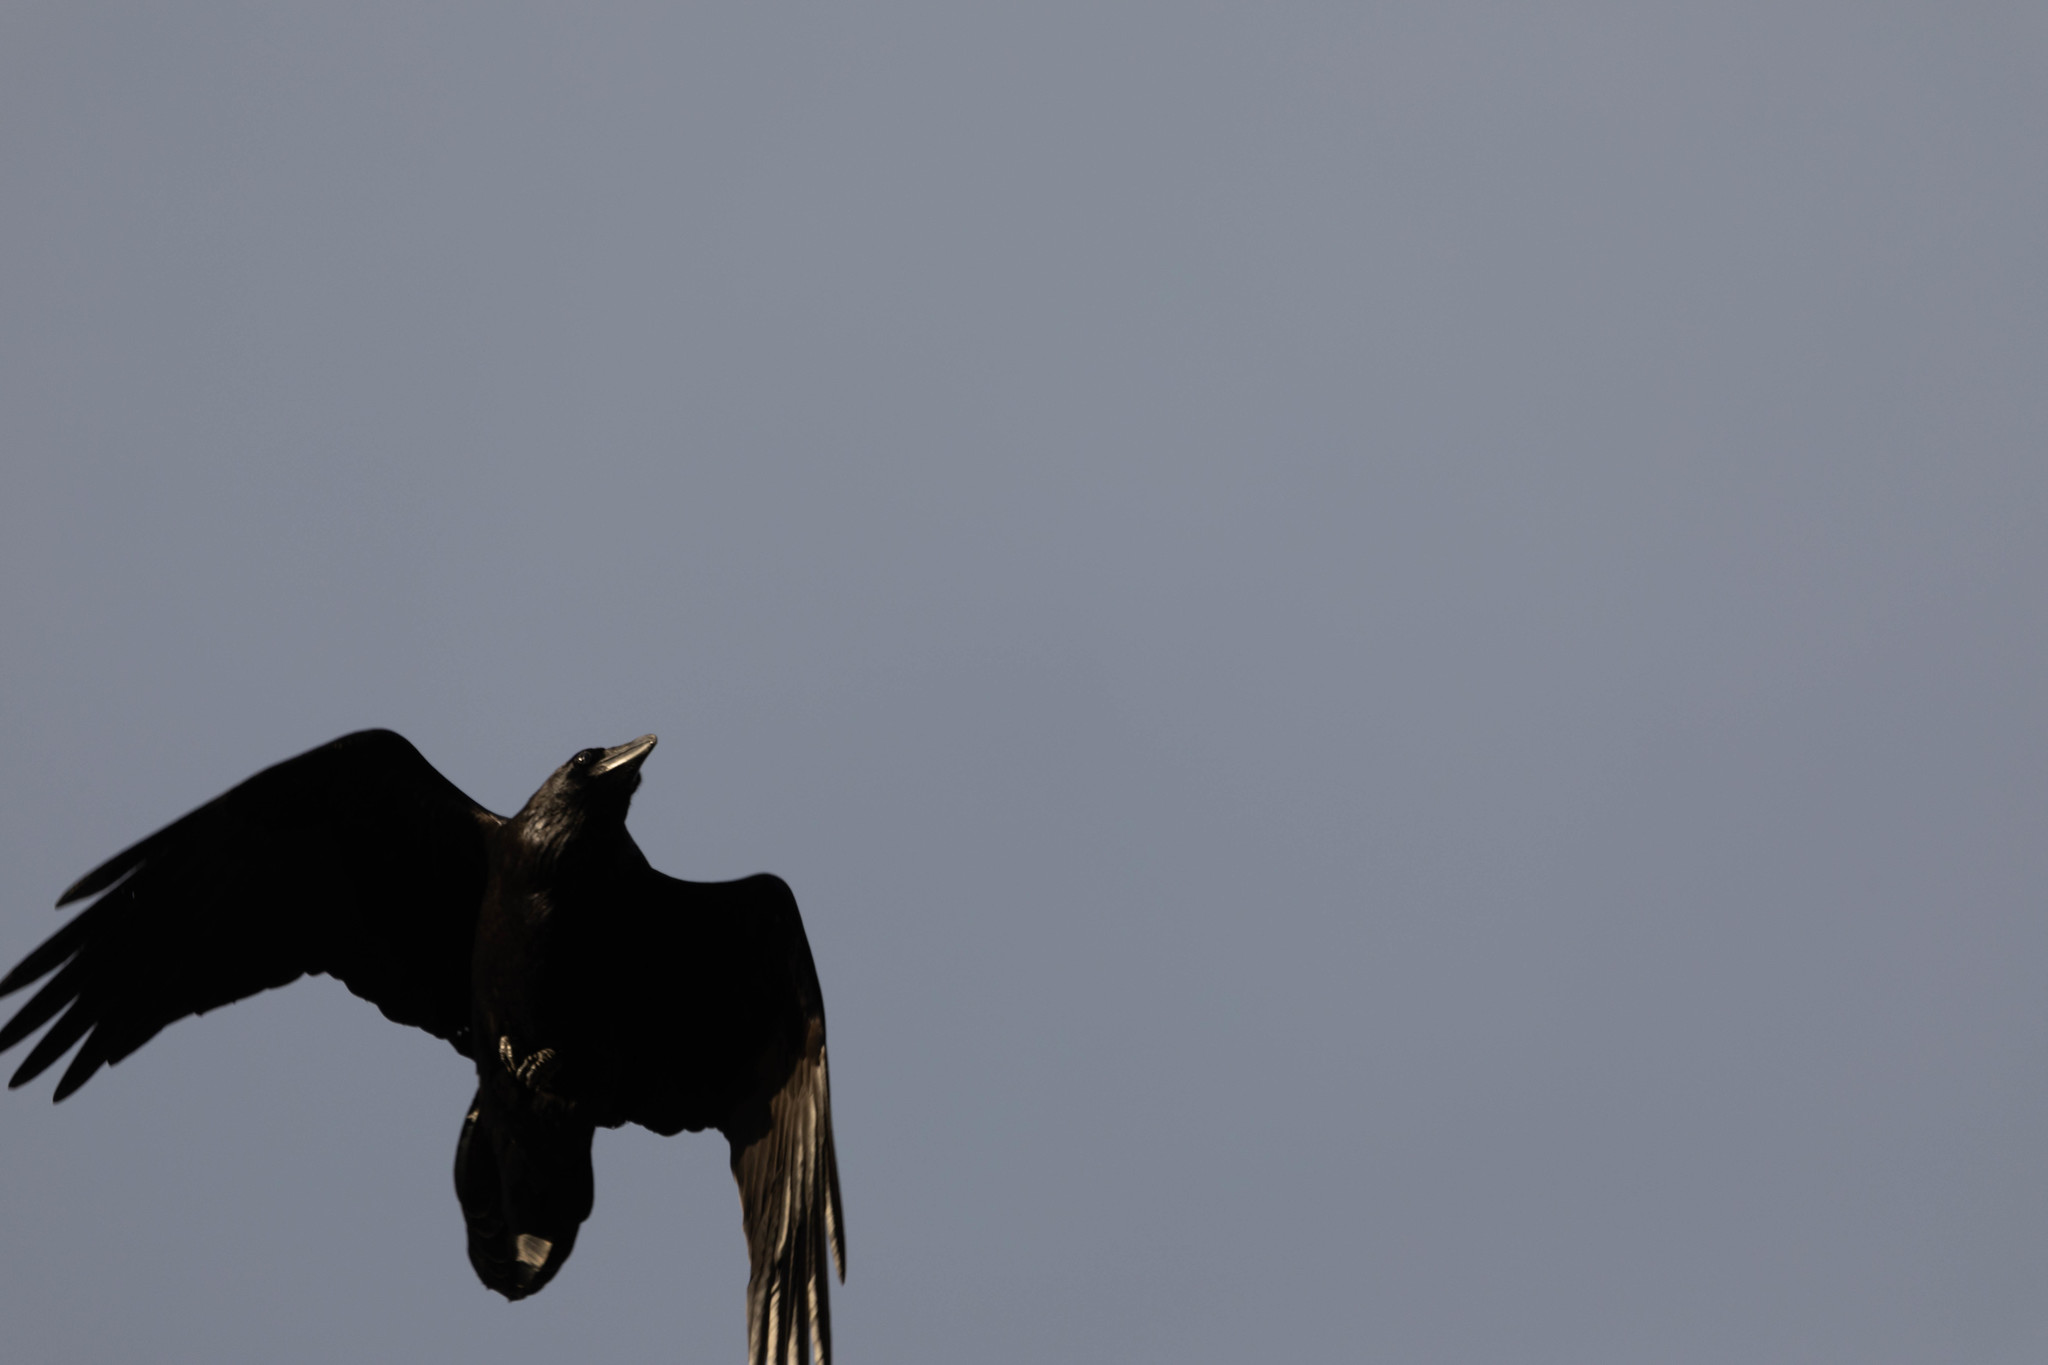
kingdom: Animalia
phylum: Chordata
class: Aves
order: Passeriformes
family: Corvidae
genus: Corvus
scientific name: Corvus corax
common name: Common raven
